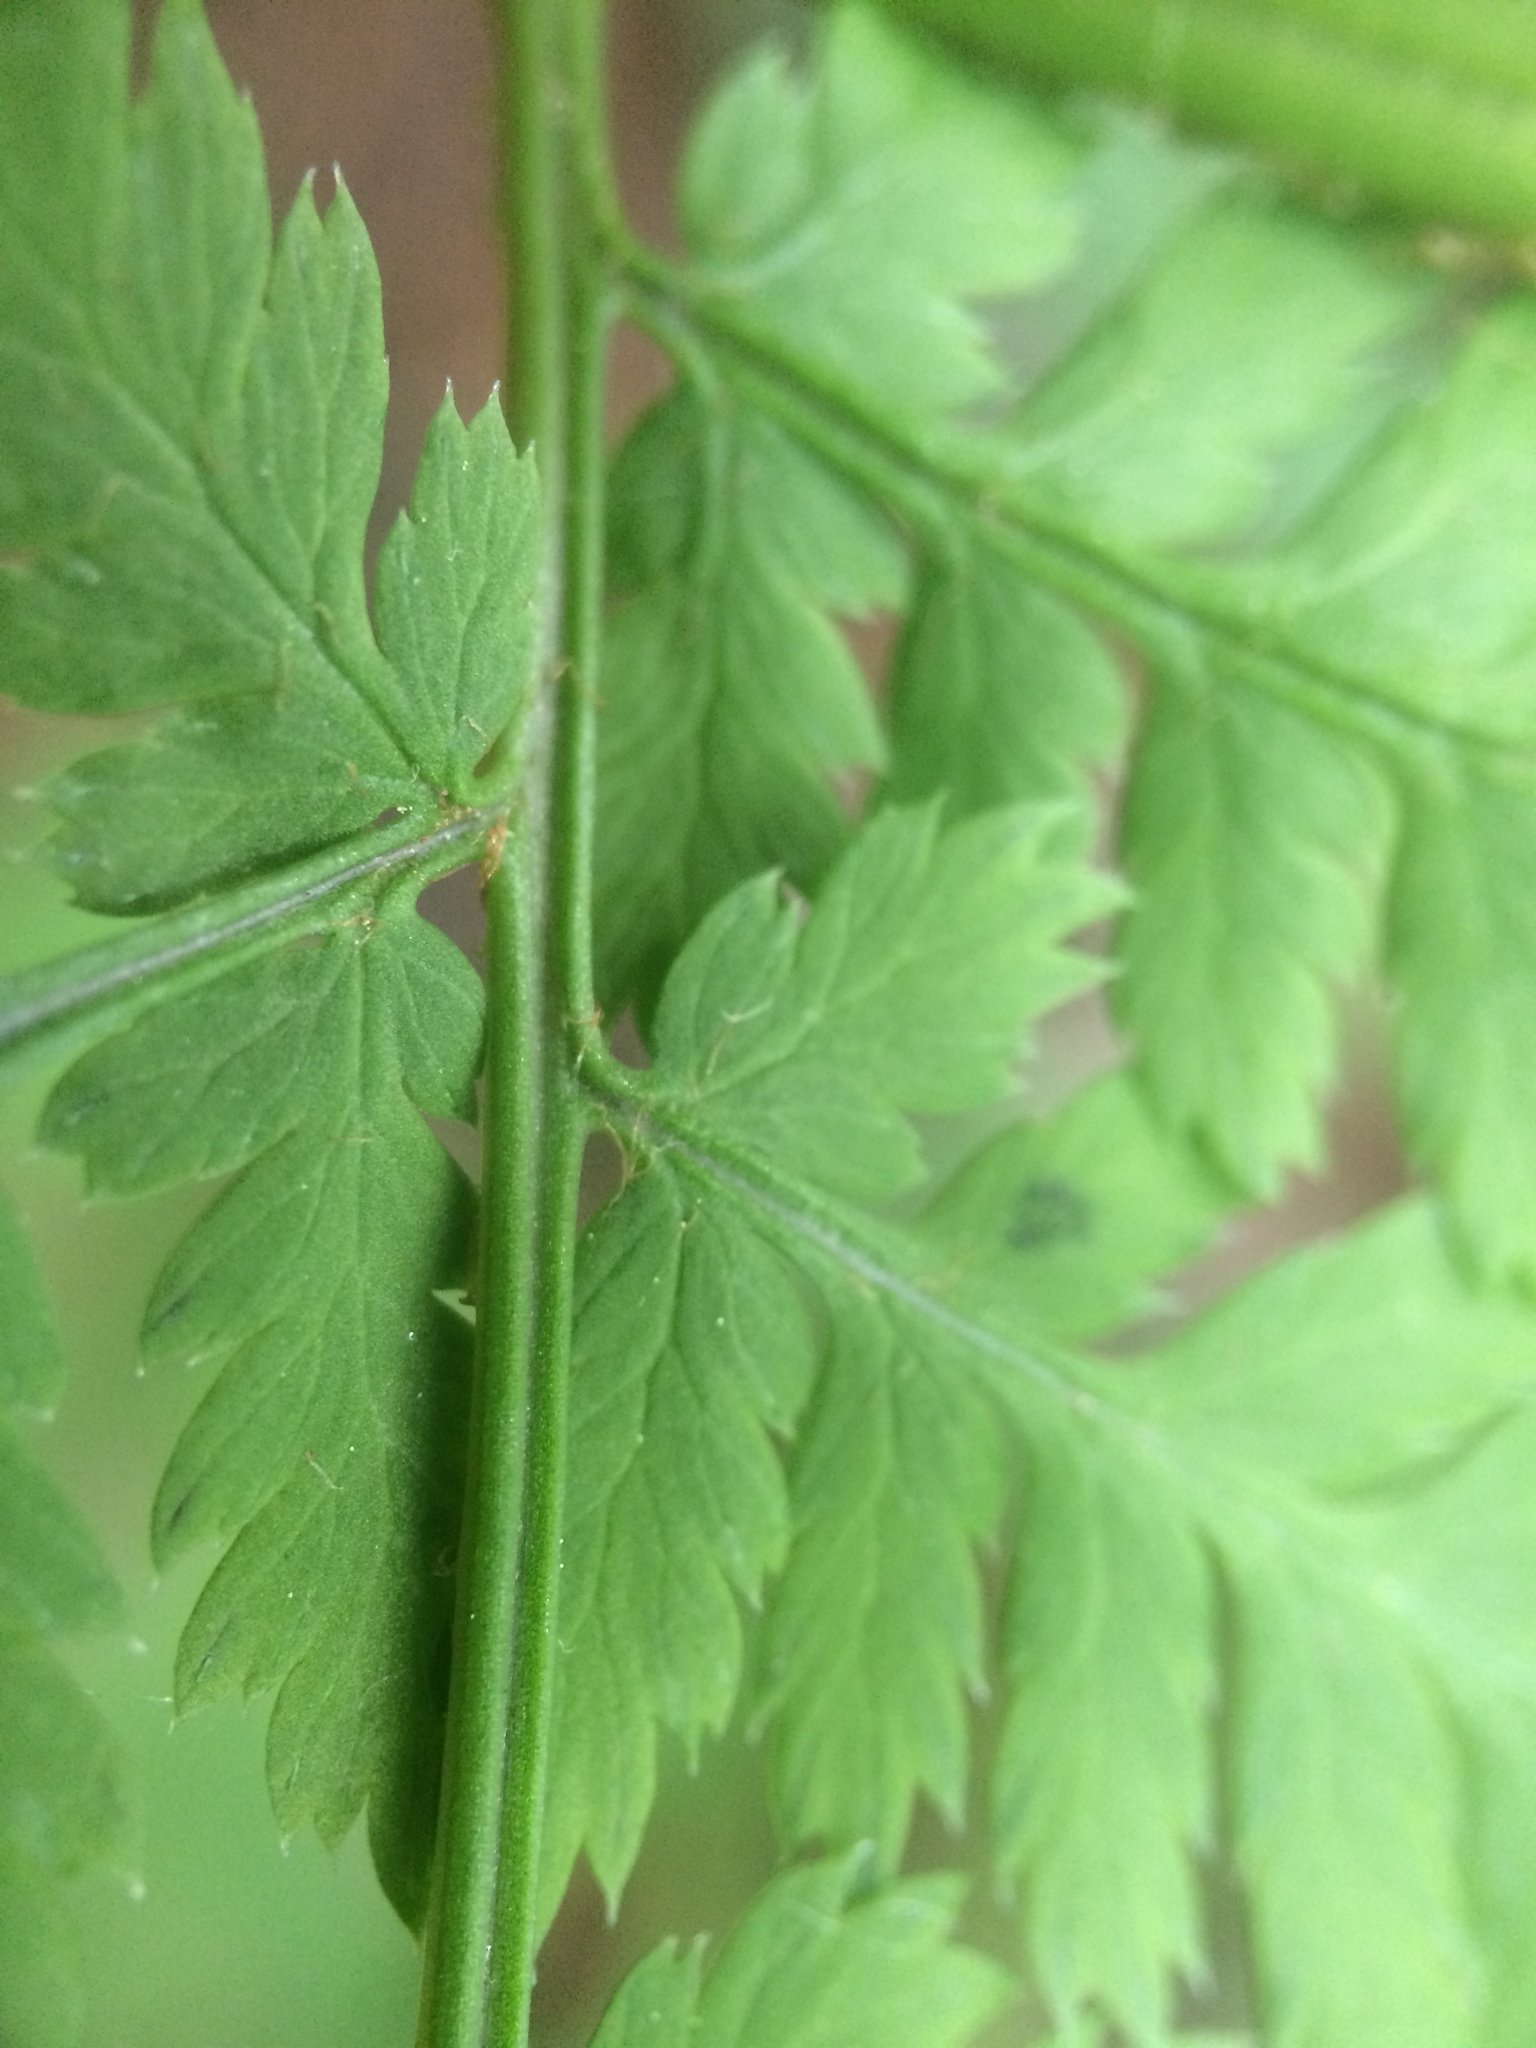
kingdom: Plantae
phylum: Tracheophyta
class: Polypodiopsida
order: Polypodiales
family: Dryopteridaceae
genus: Dryopteris
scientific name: Dryopteris campyloptera
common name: Mountain wood fern
